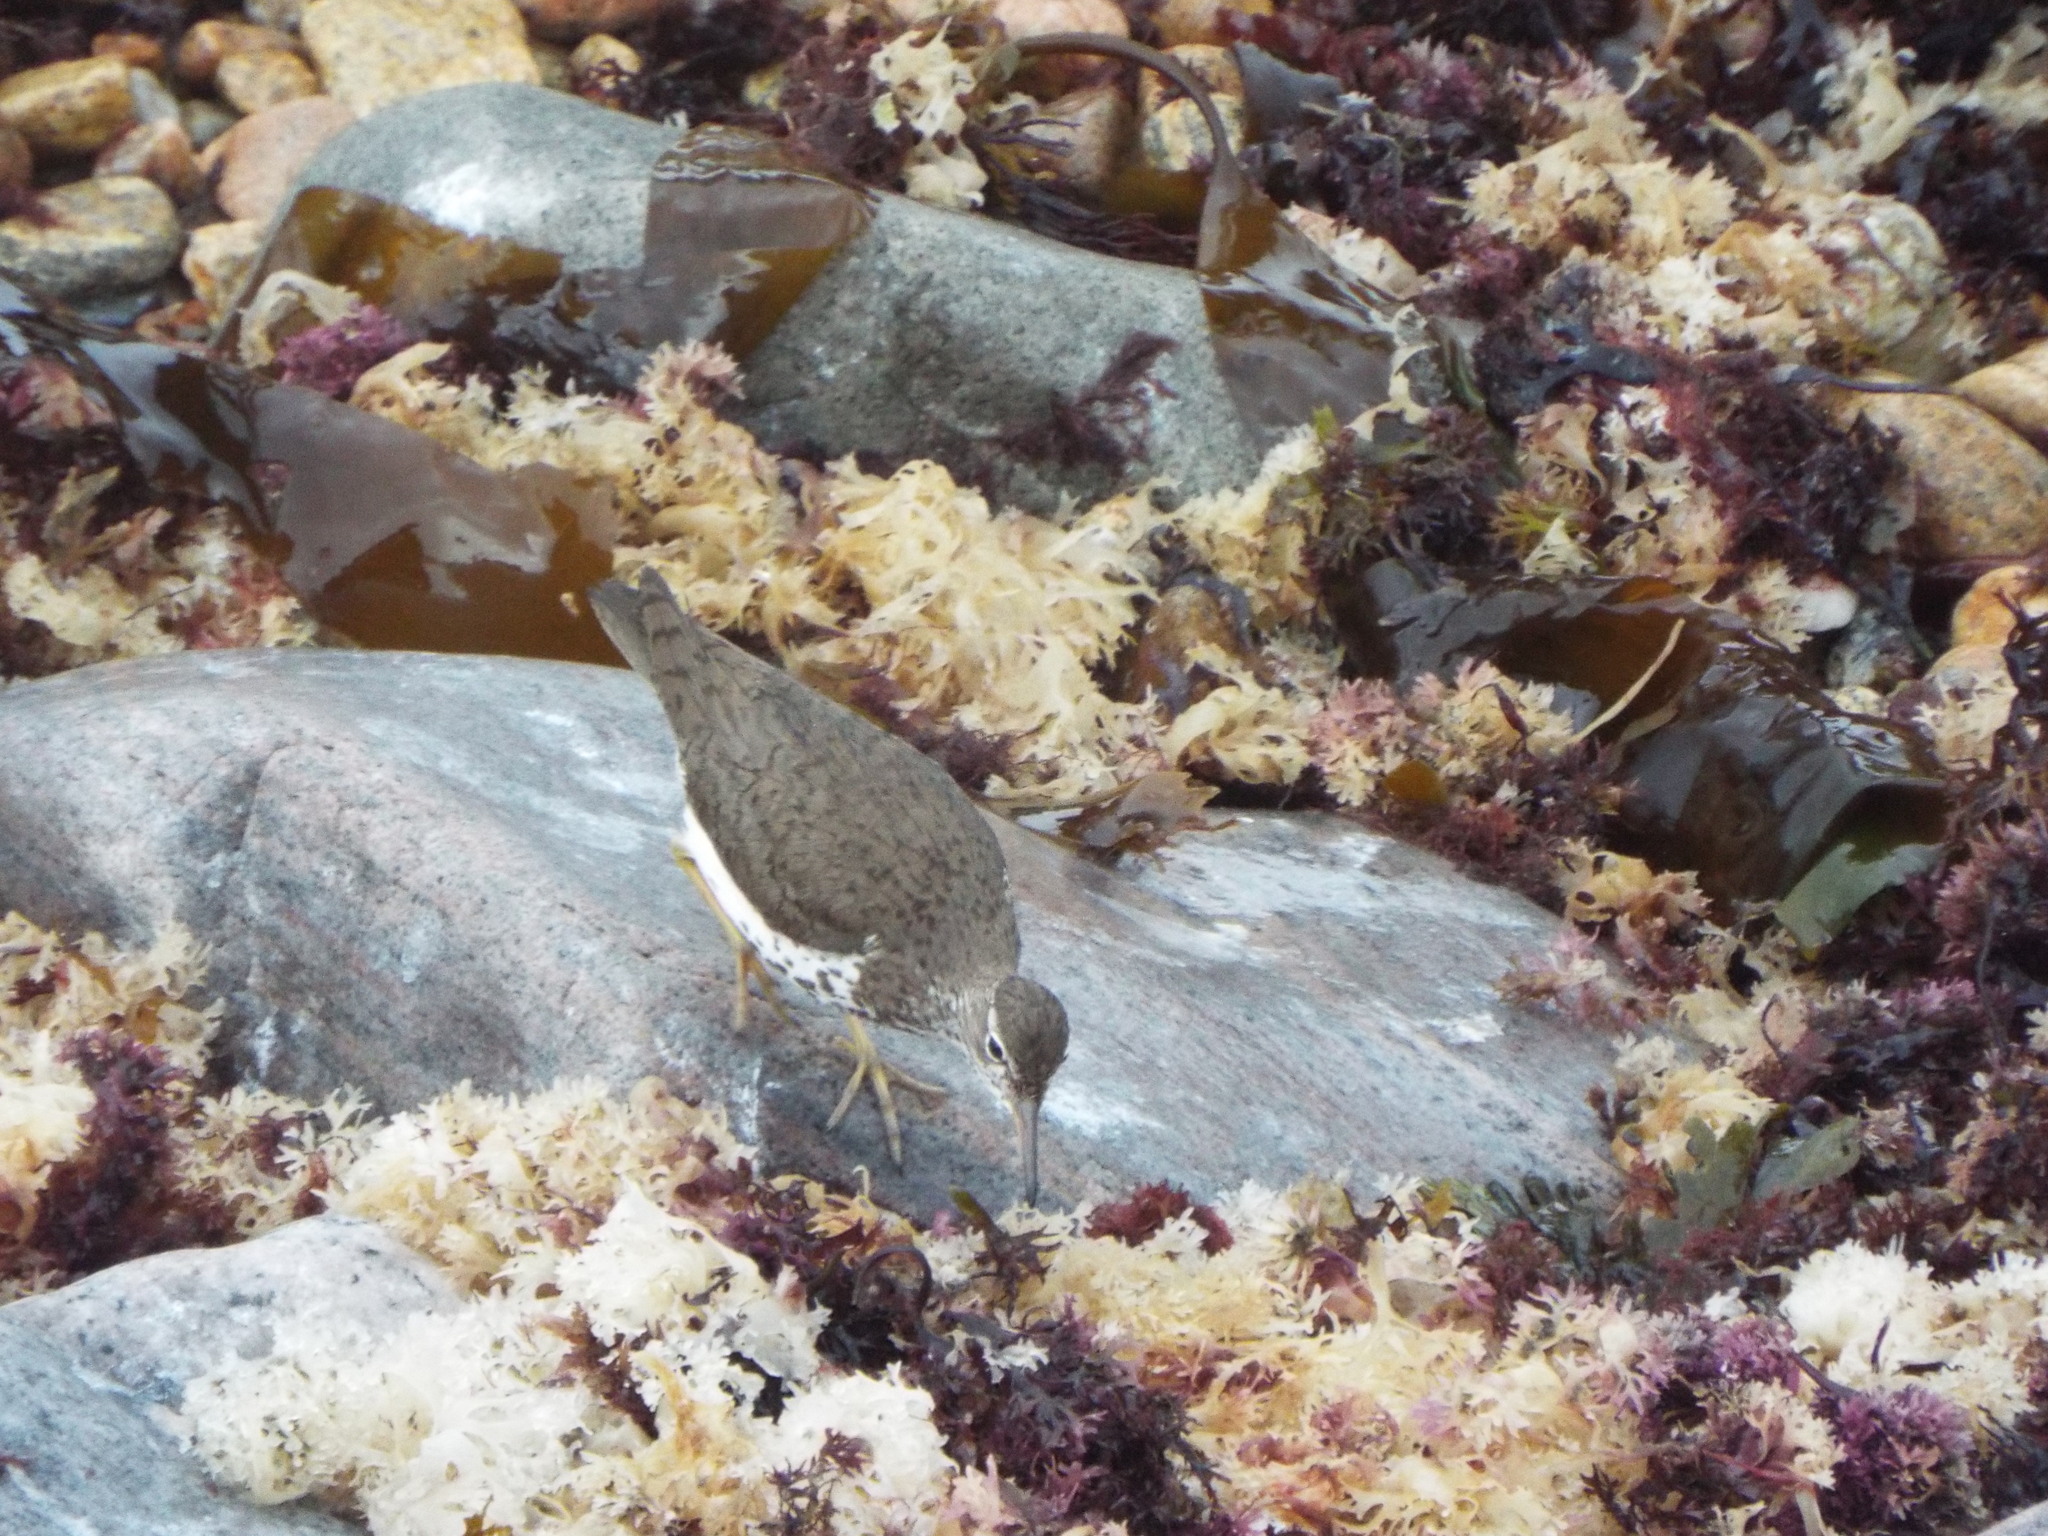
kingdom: Animalia
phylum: Chordata
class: Aves
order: Charadriiformes
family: Scolopacidae
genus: Actitis
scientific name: Actitis macularius
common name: Spotted sandpiper
